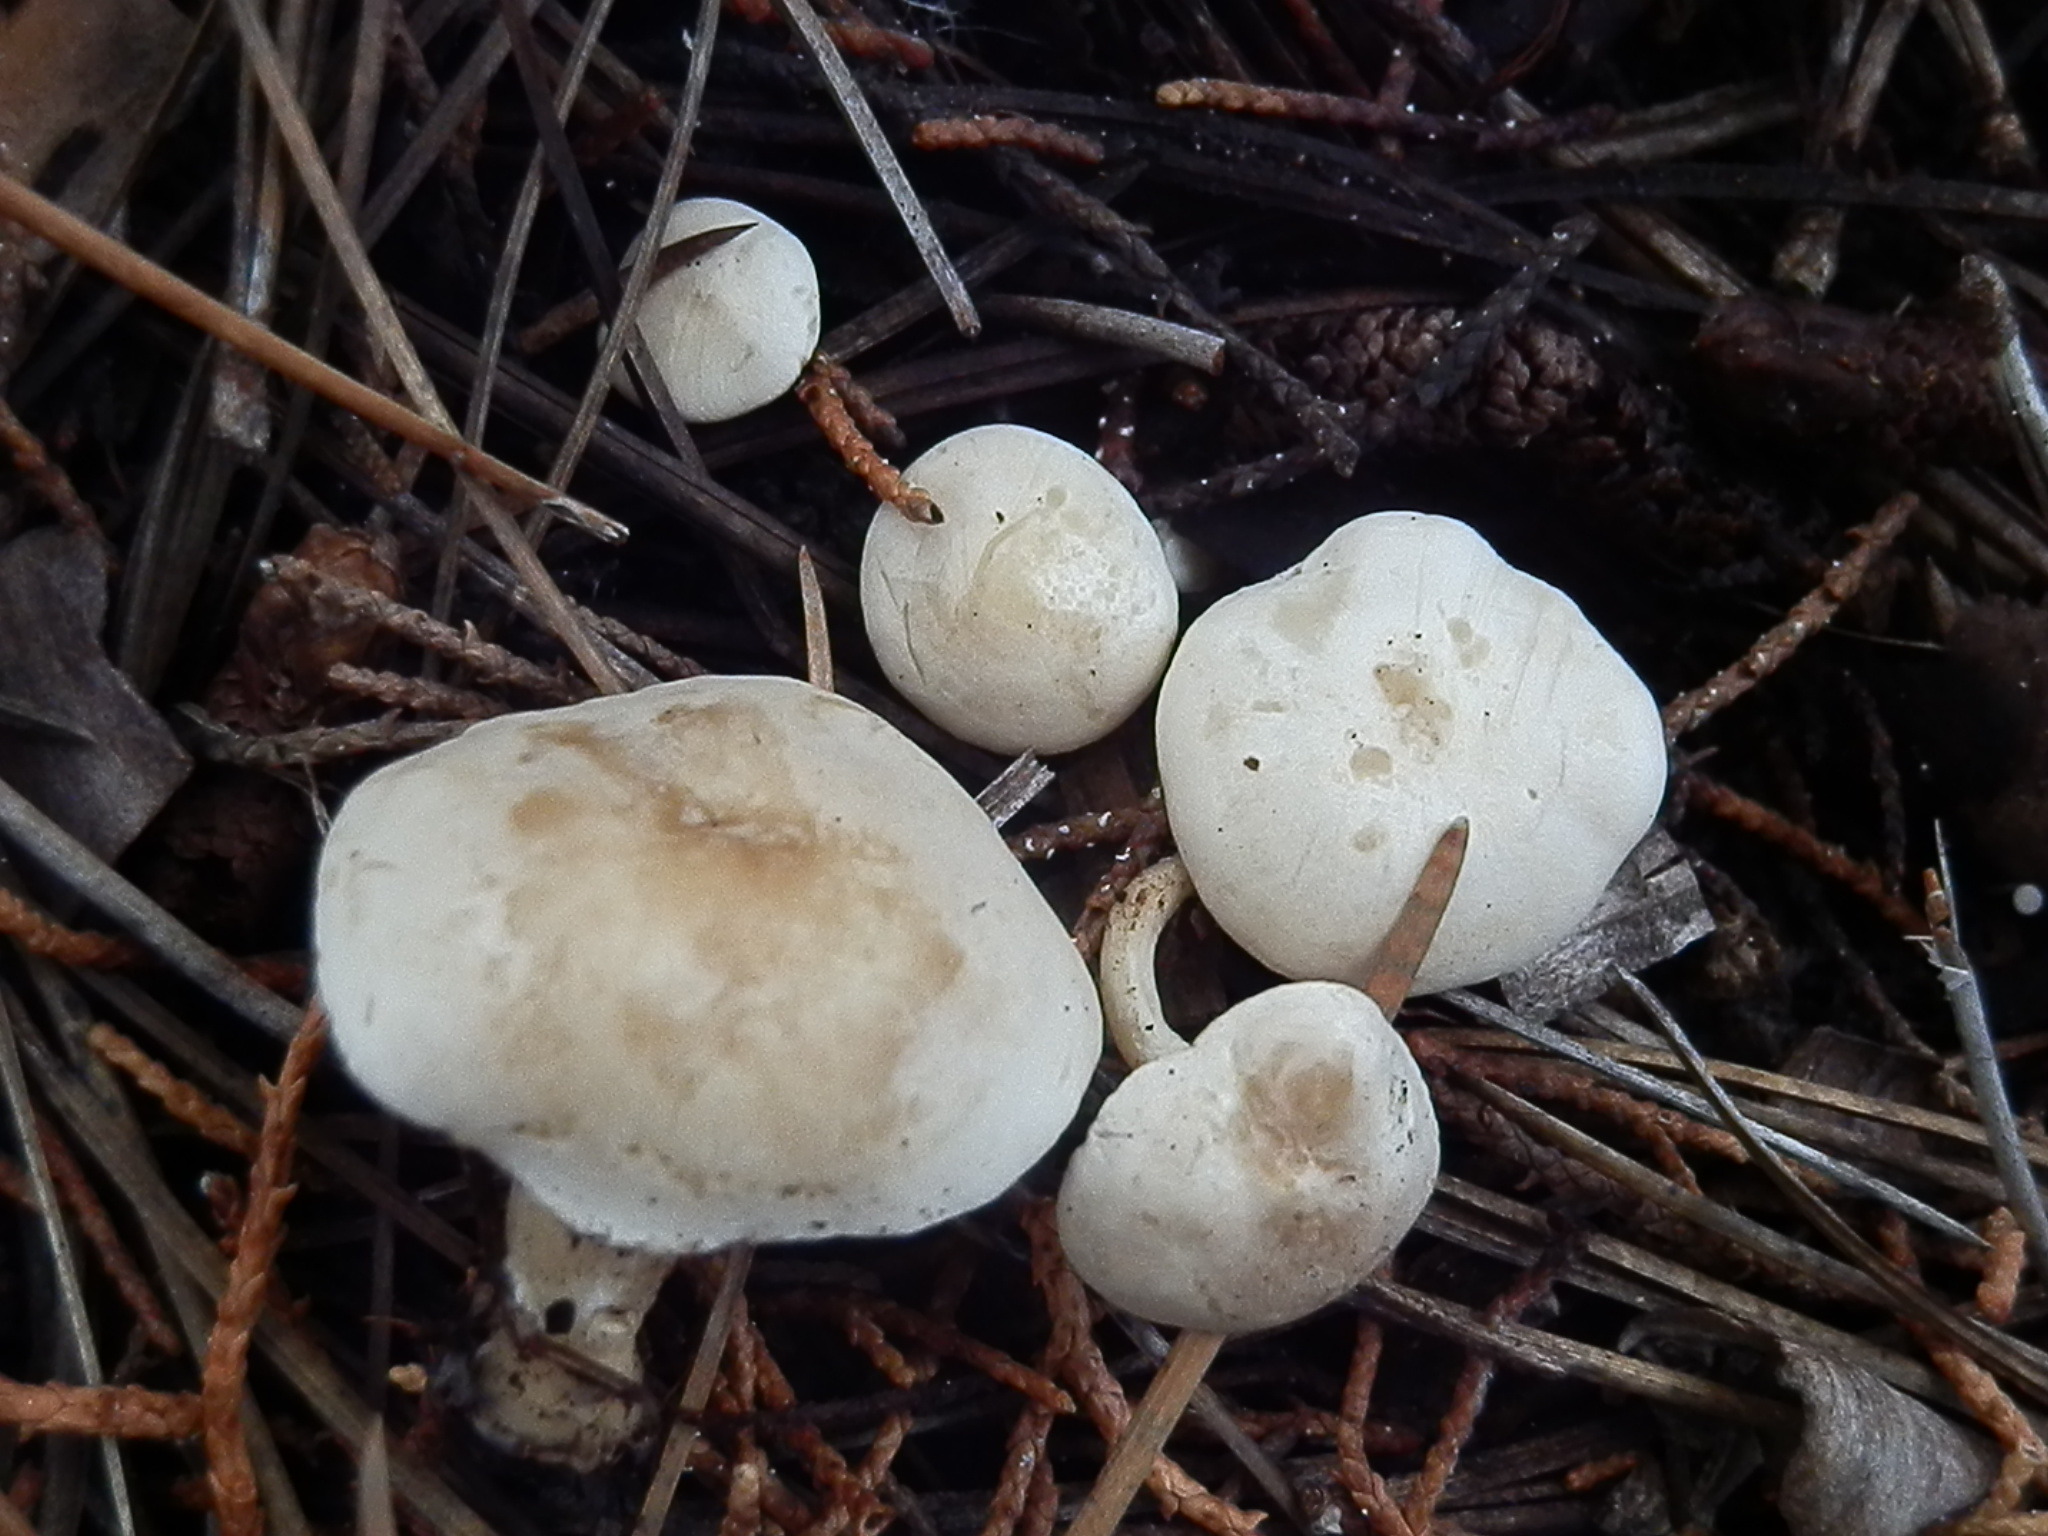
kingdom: Fungi
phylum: Basidiomycota
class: Agaricomycetes
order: Agaricales
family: Tricholomataceae
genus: Lulesia
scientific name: Lulesia
